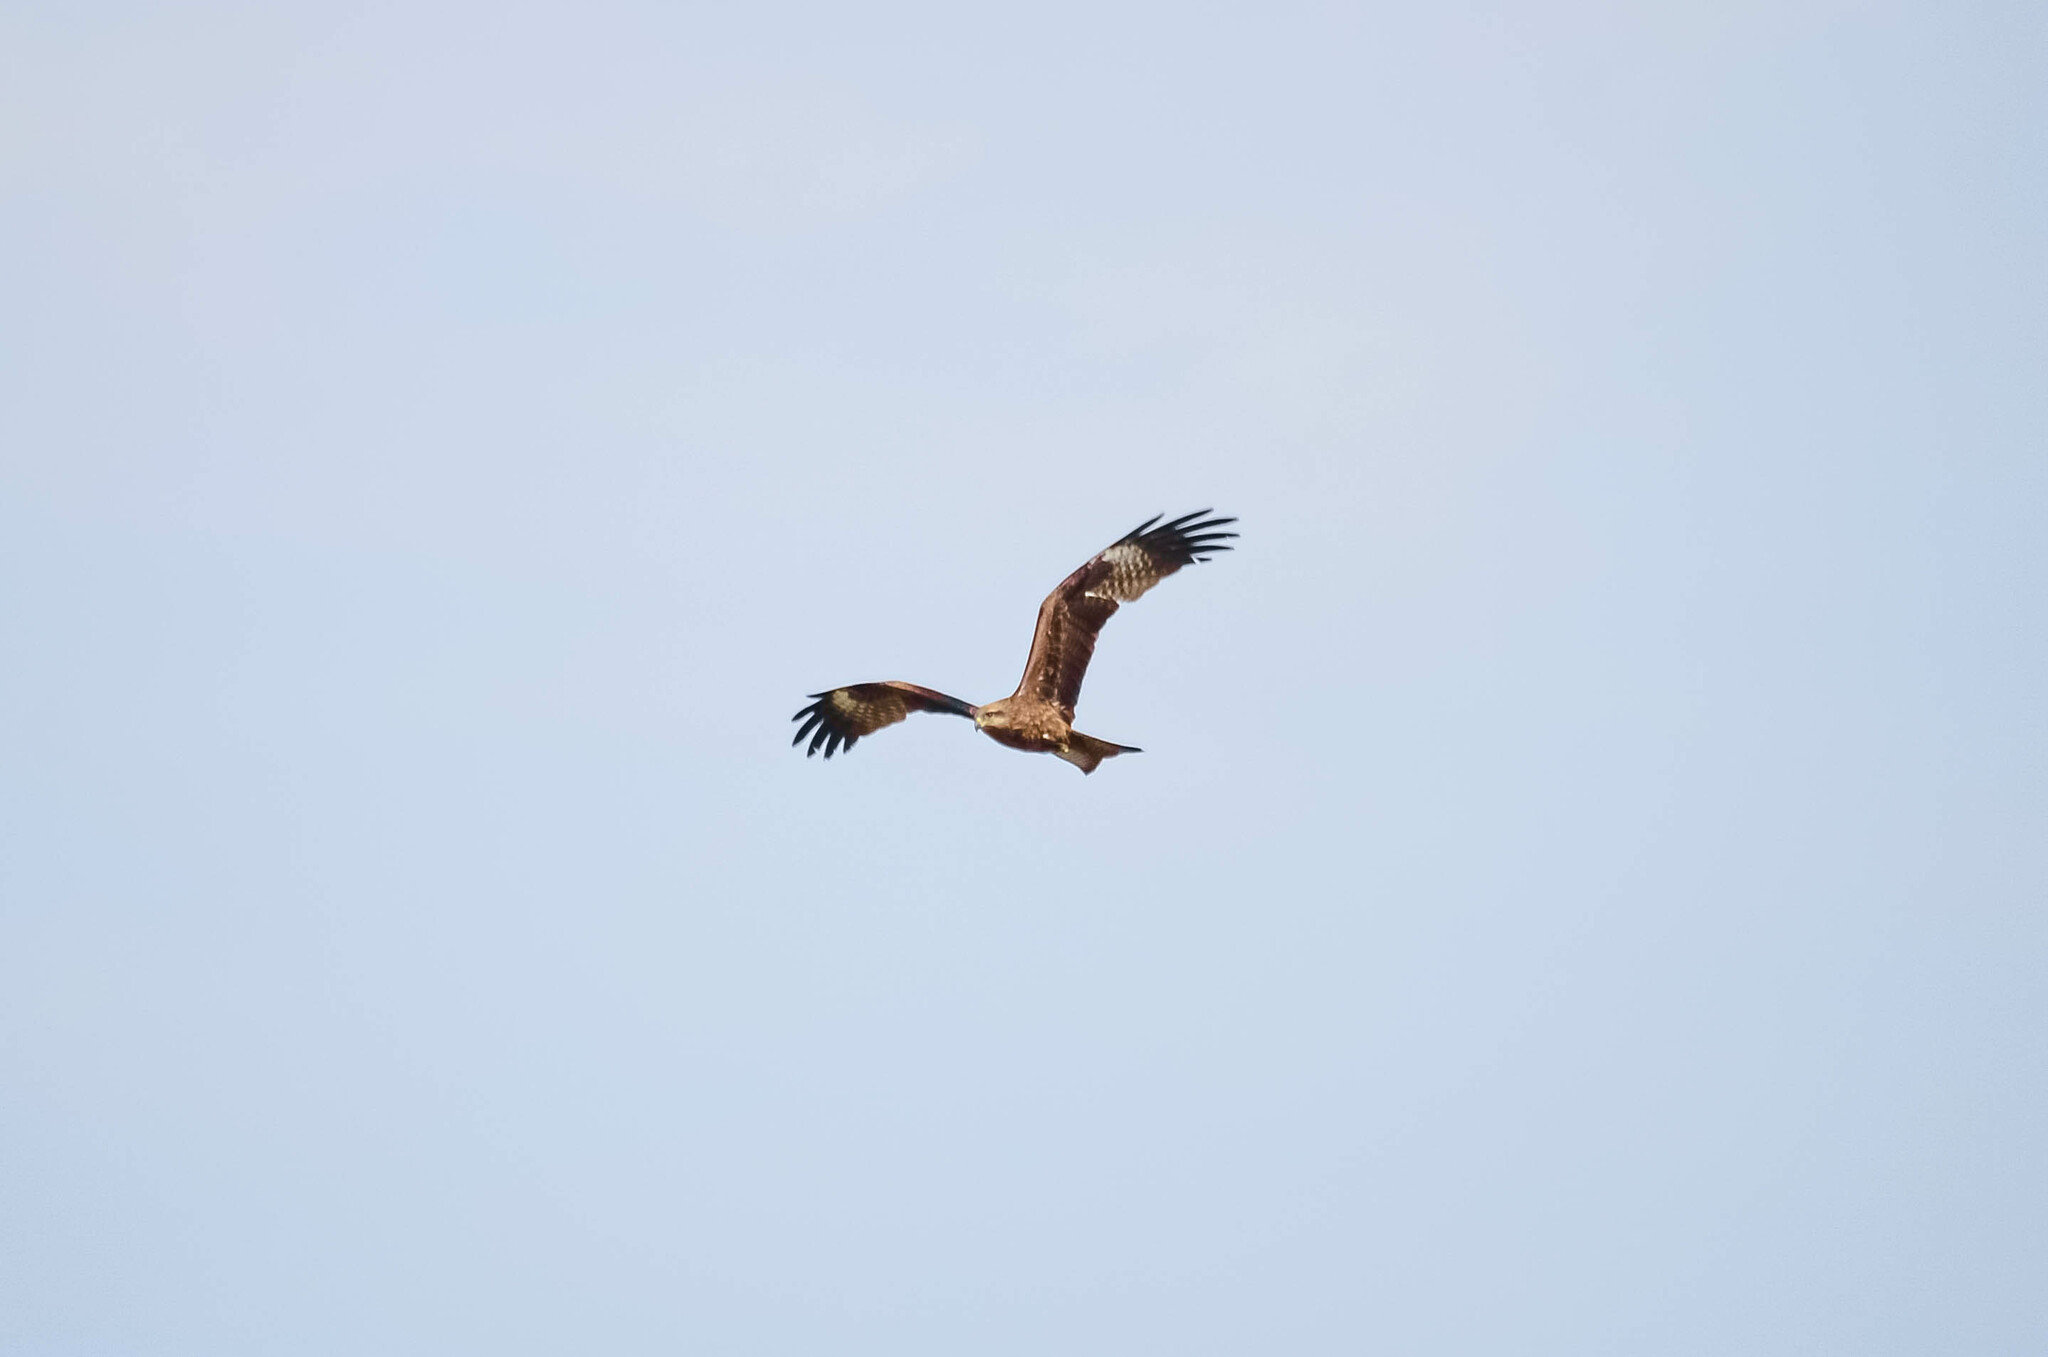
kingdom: Animalia
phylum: Chordata
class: Aves
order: Accipitriformes
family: Accipitridae
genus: Milvus
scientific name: Milvus migrans
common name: Black kite
